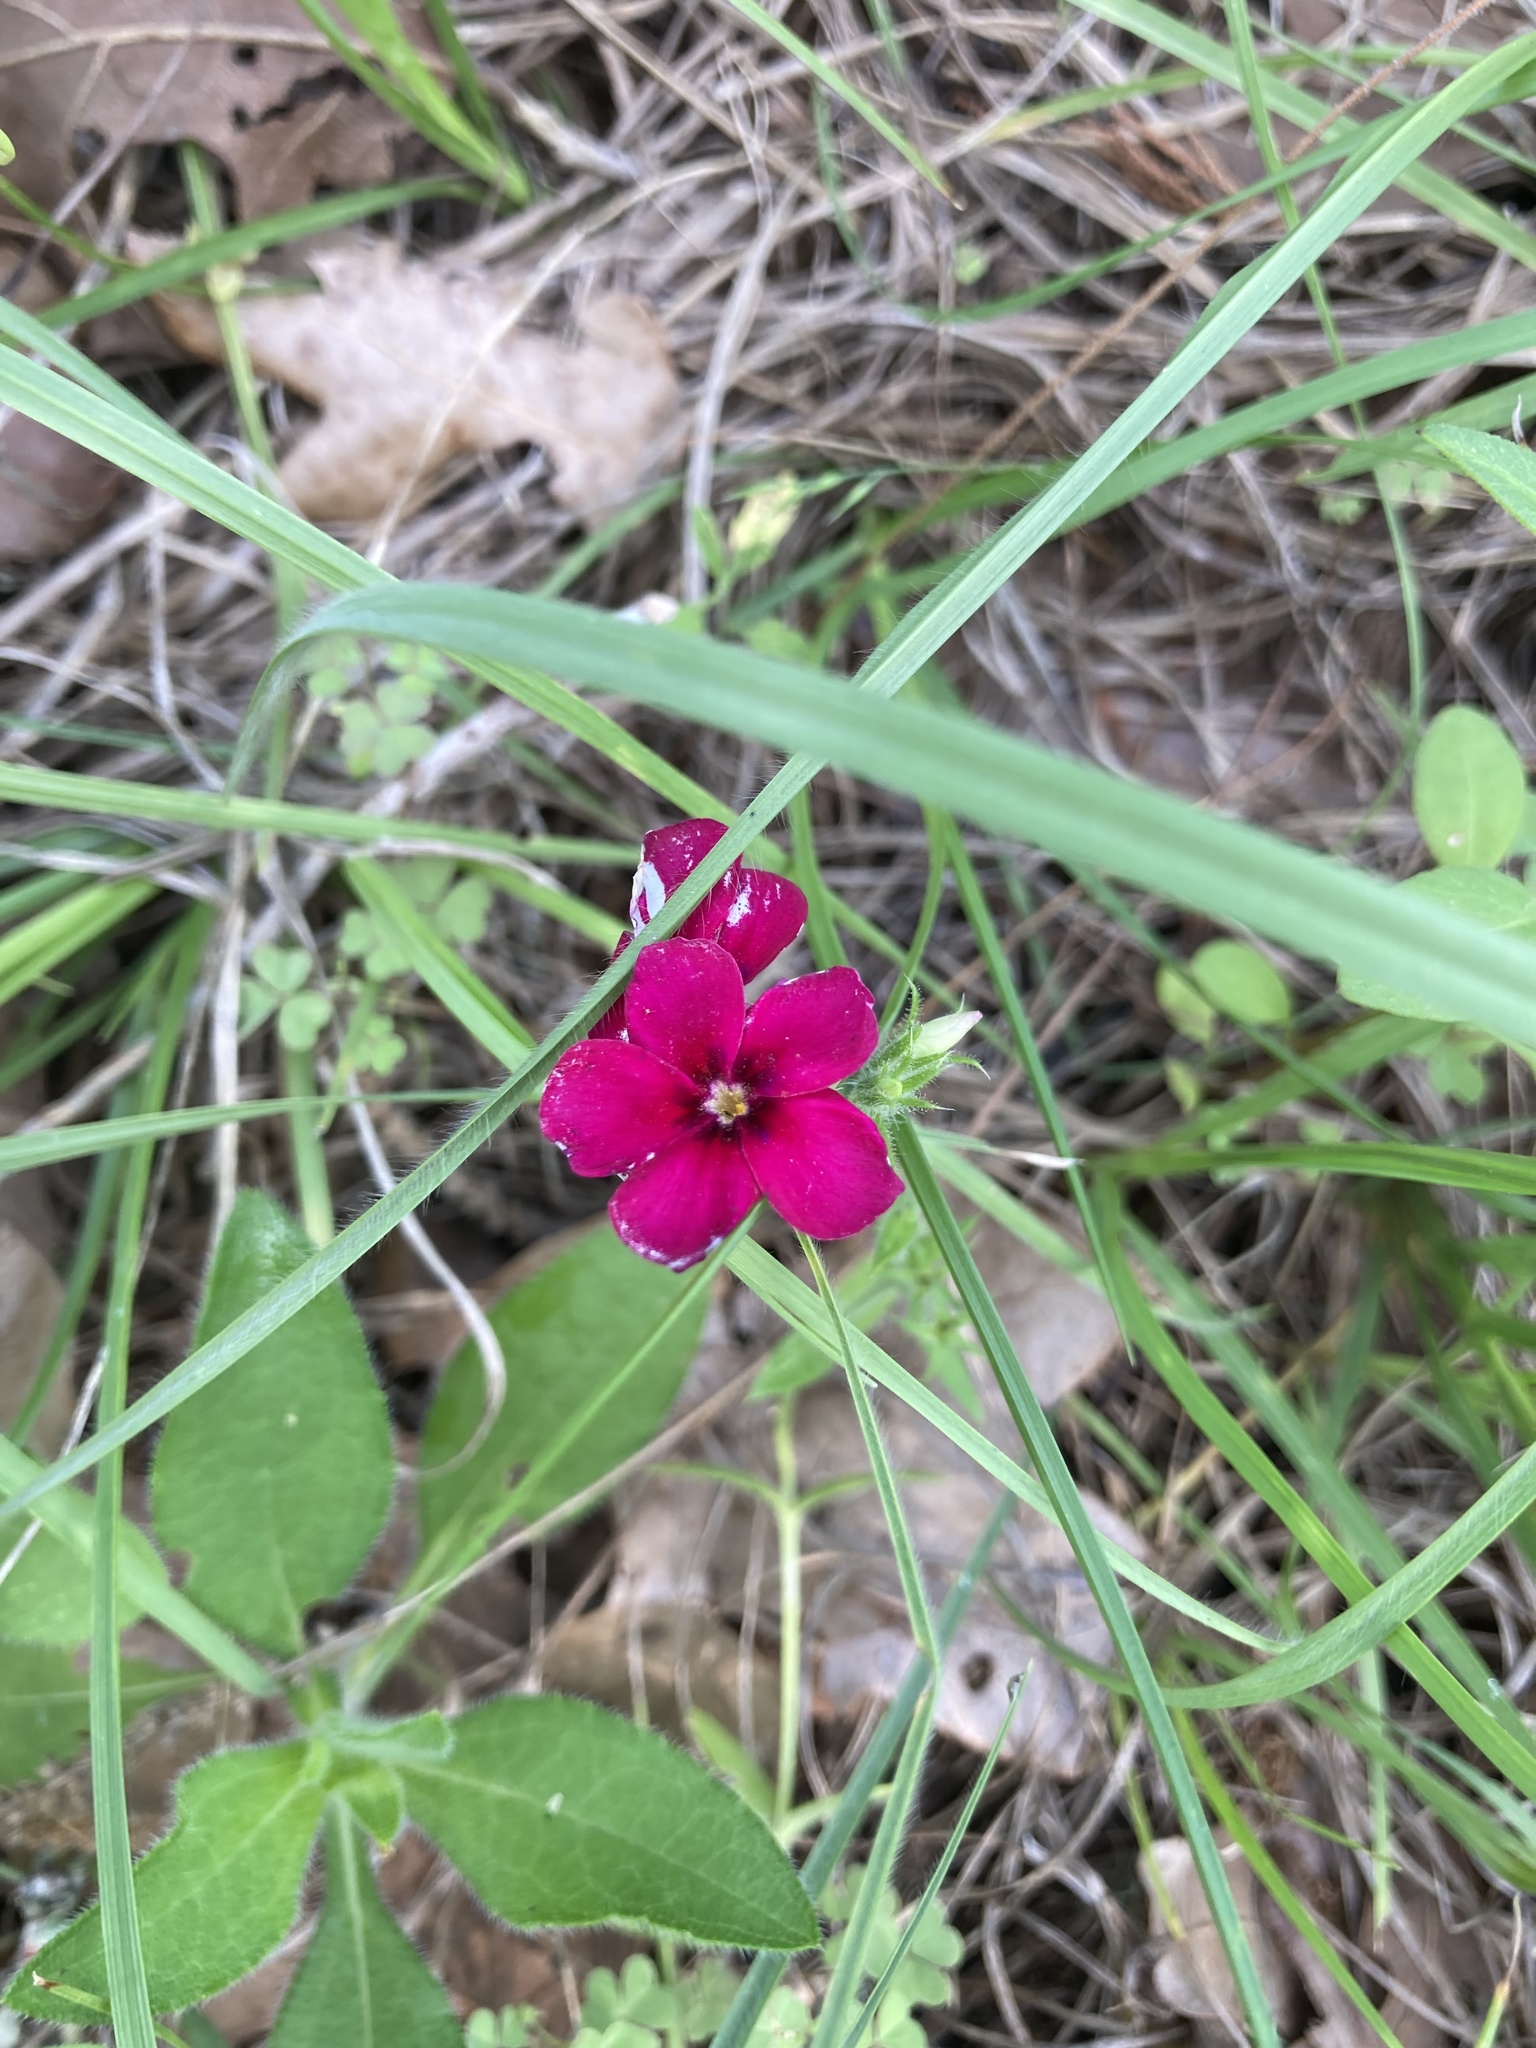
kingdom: Plantae
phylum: Tracheophyta
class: Magnoliopsida
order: Ericales
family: Polemoniaceae
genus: Phlox
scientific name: Phlox drummondii
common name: Drummond's phlox
